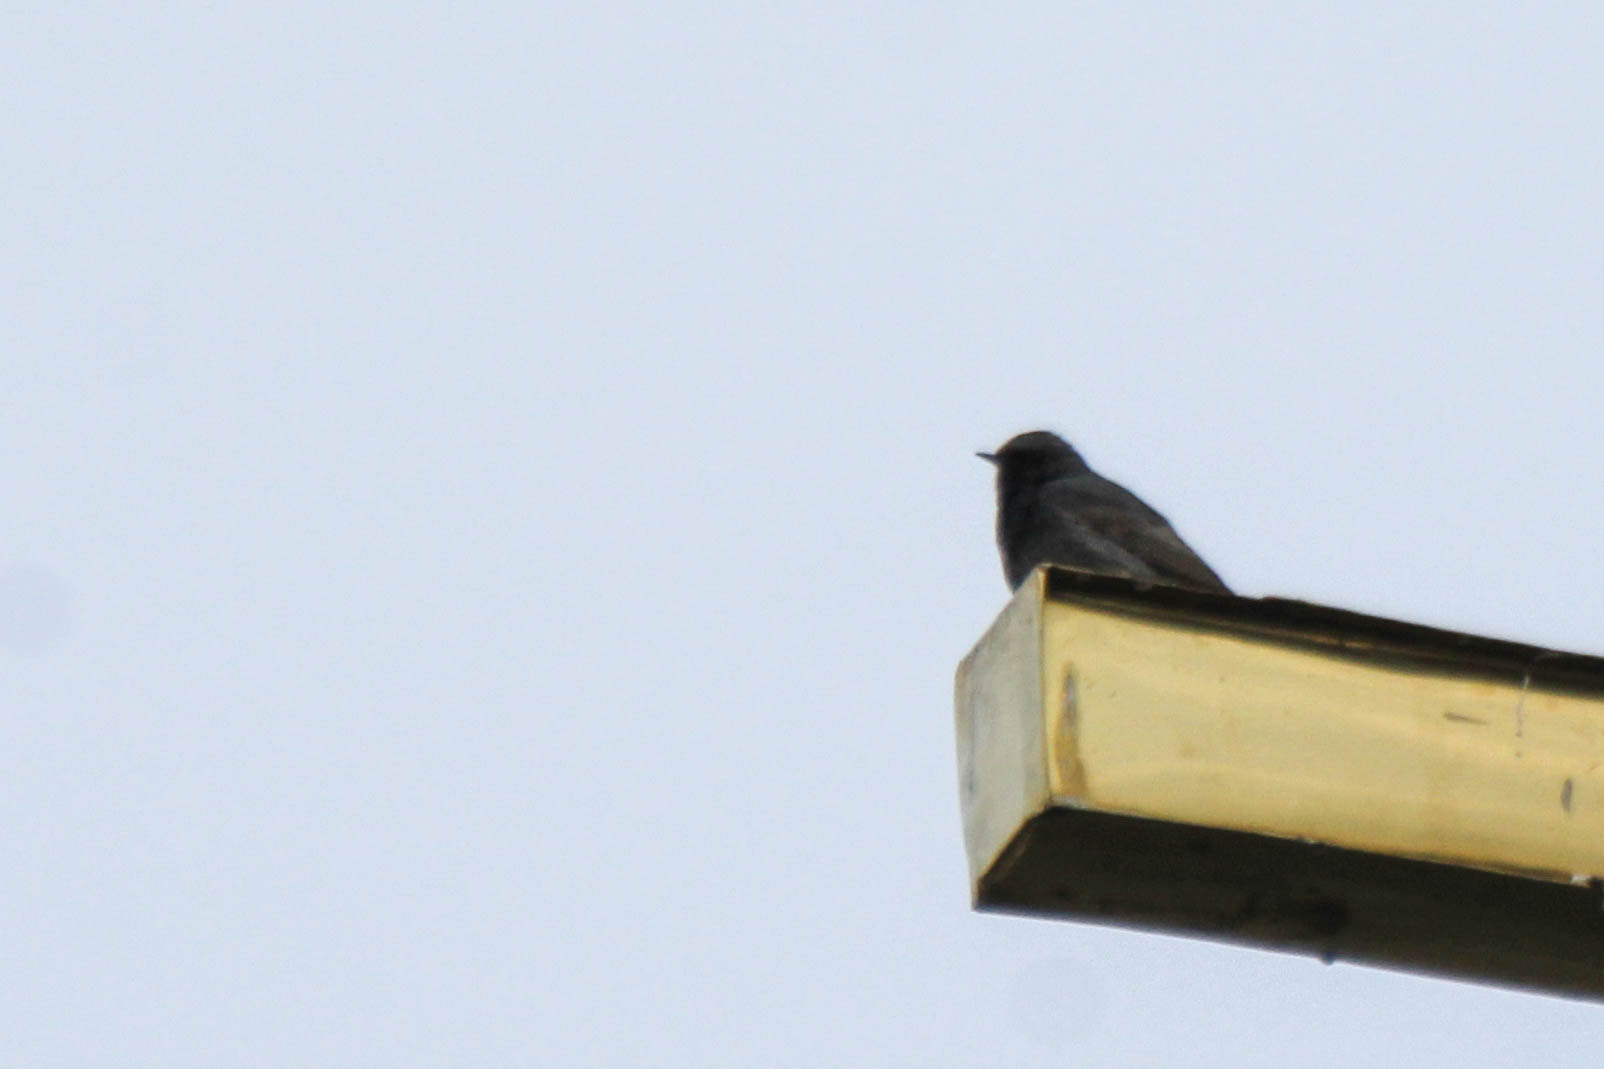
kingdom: Animalia
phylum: Chordata
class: Aves
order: Passeriformes
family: Muscicapidae
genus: Phoenicurus
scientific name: Phoenicurus ochruros
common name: Black redstart
